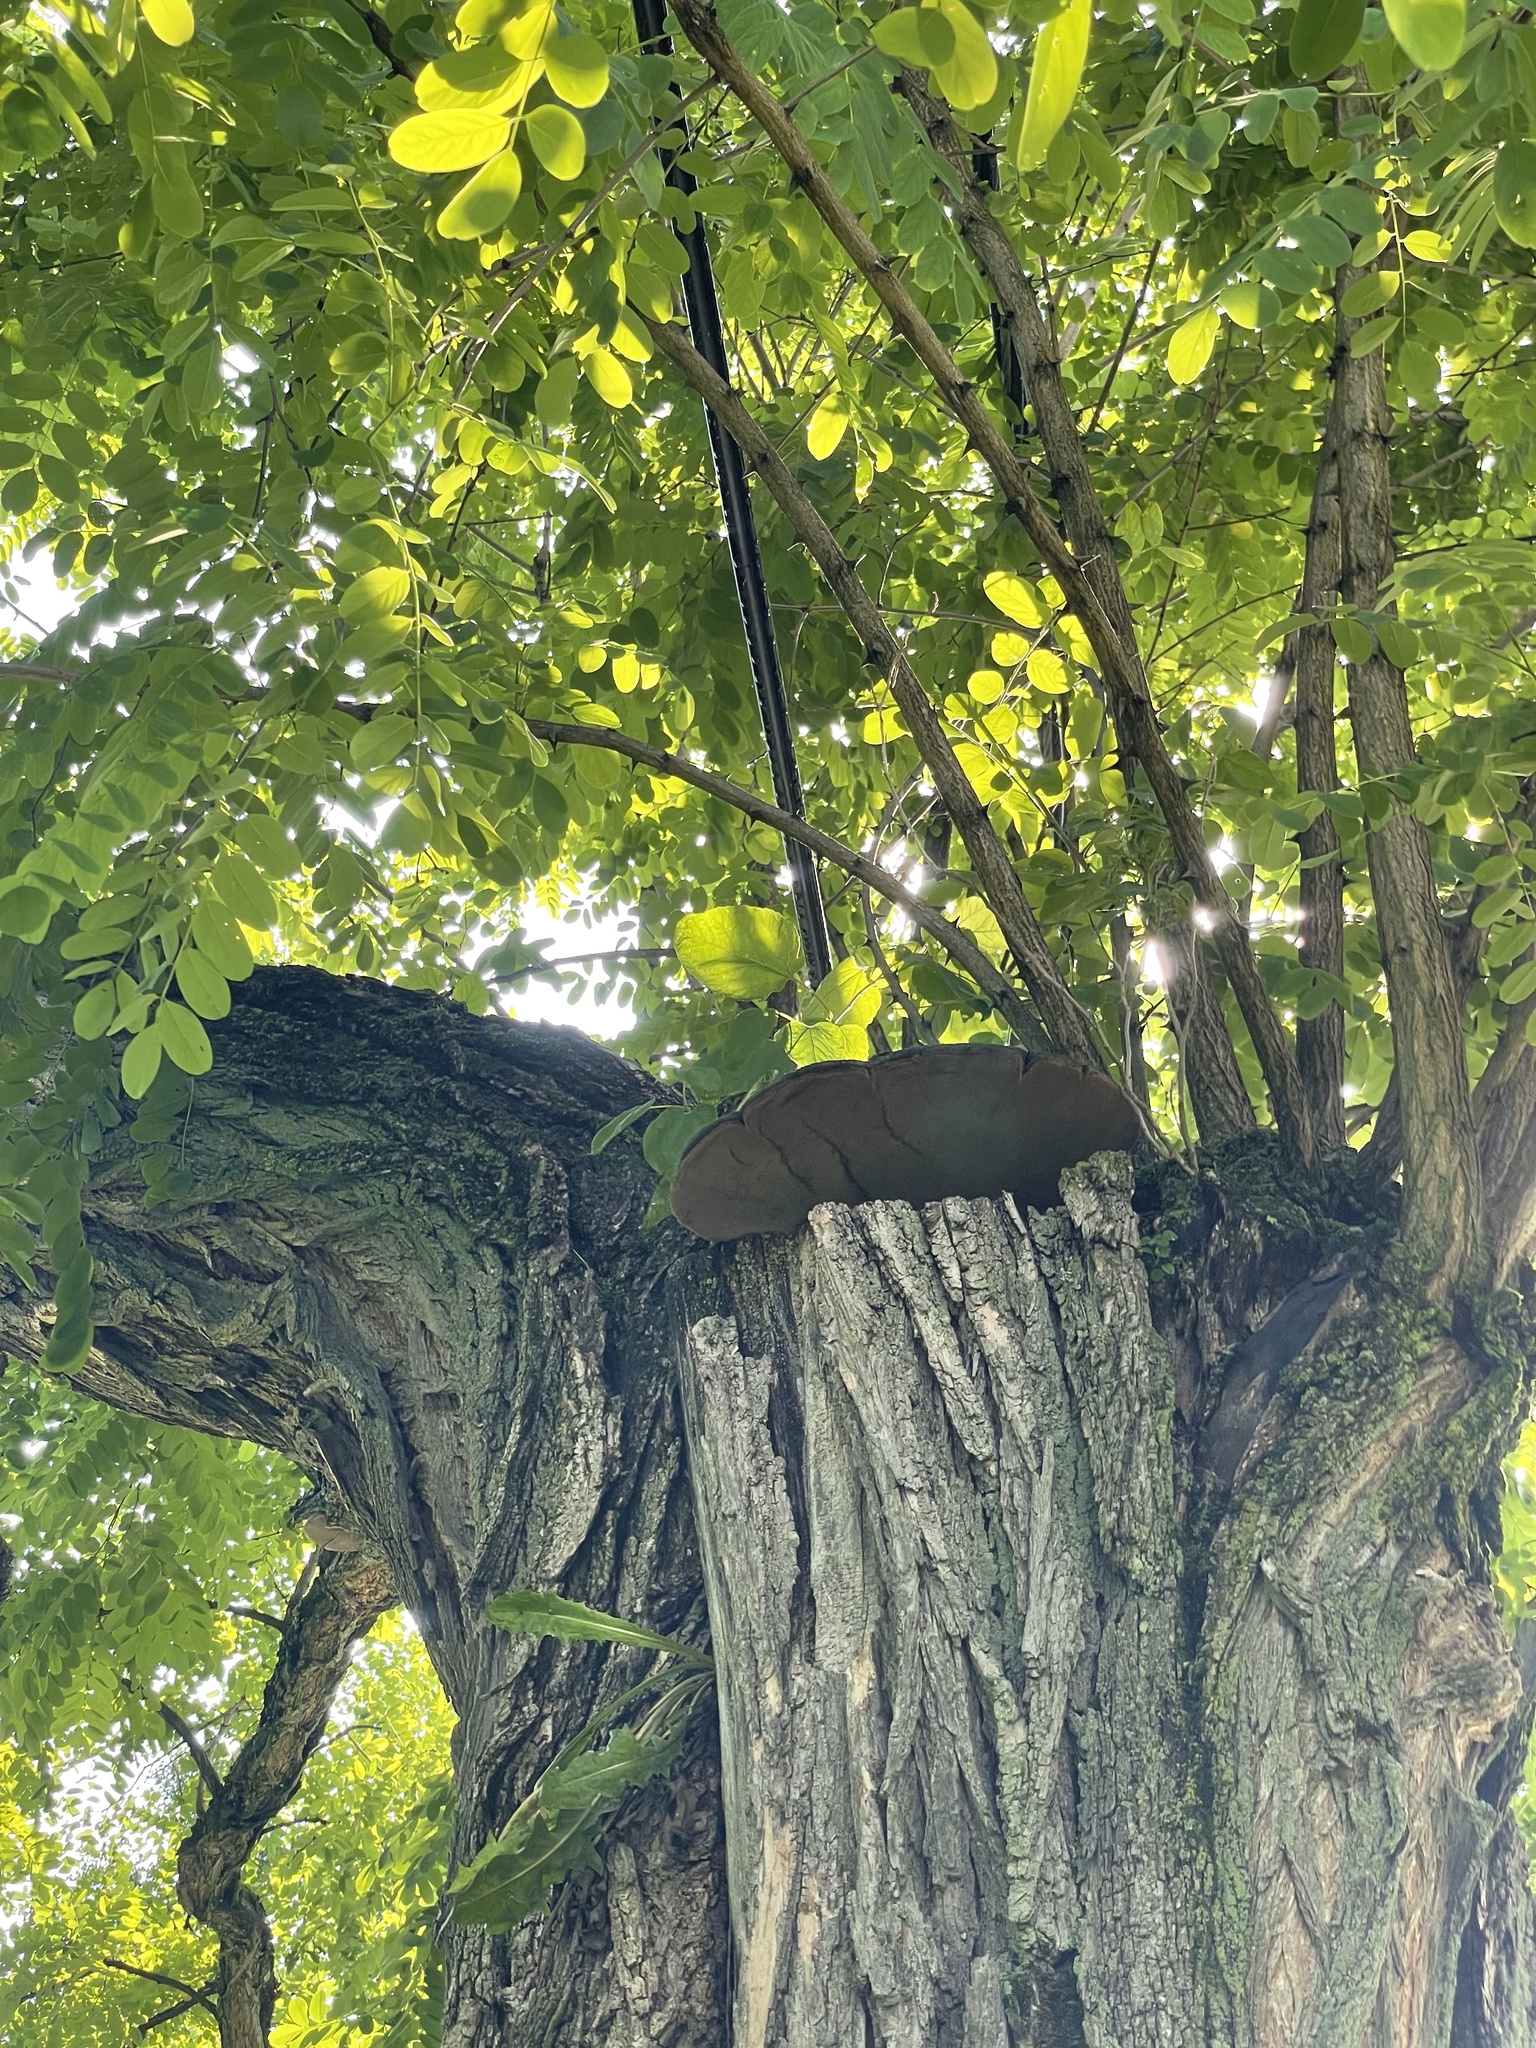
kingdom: Fungi
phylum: Basidiomycota
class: Agaricomycetes
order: Hymenochaetales
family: Hymenochaetaceae
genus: Phellinus
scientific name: Phellinus robiniae
